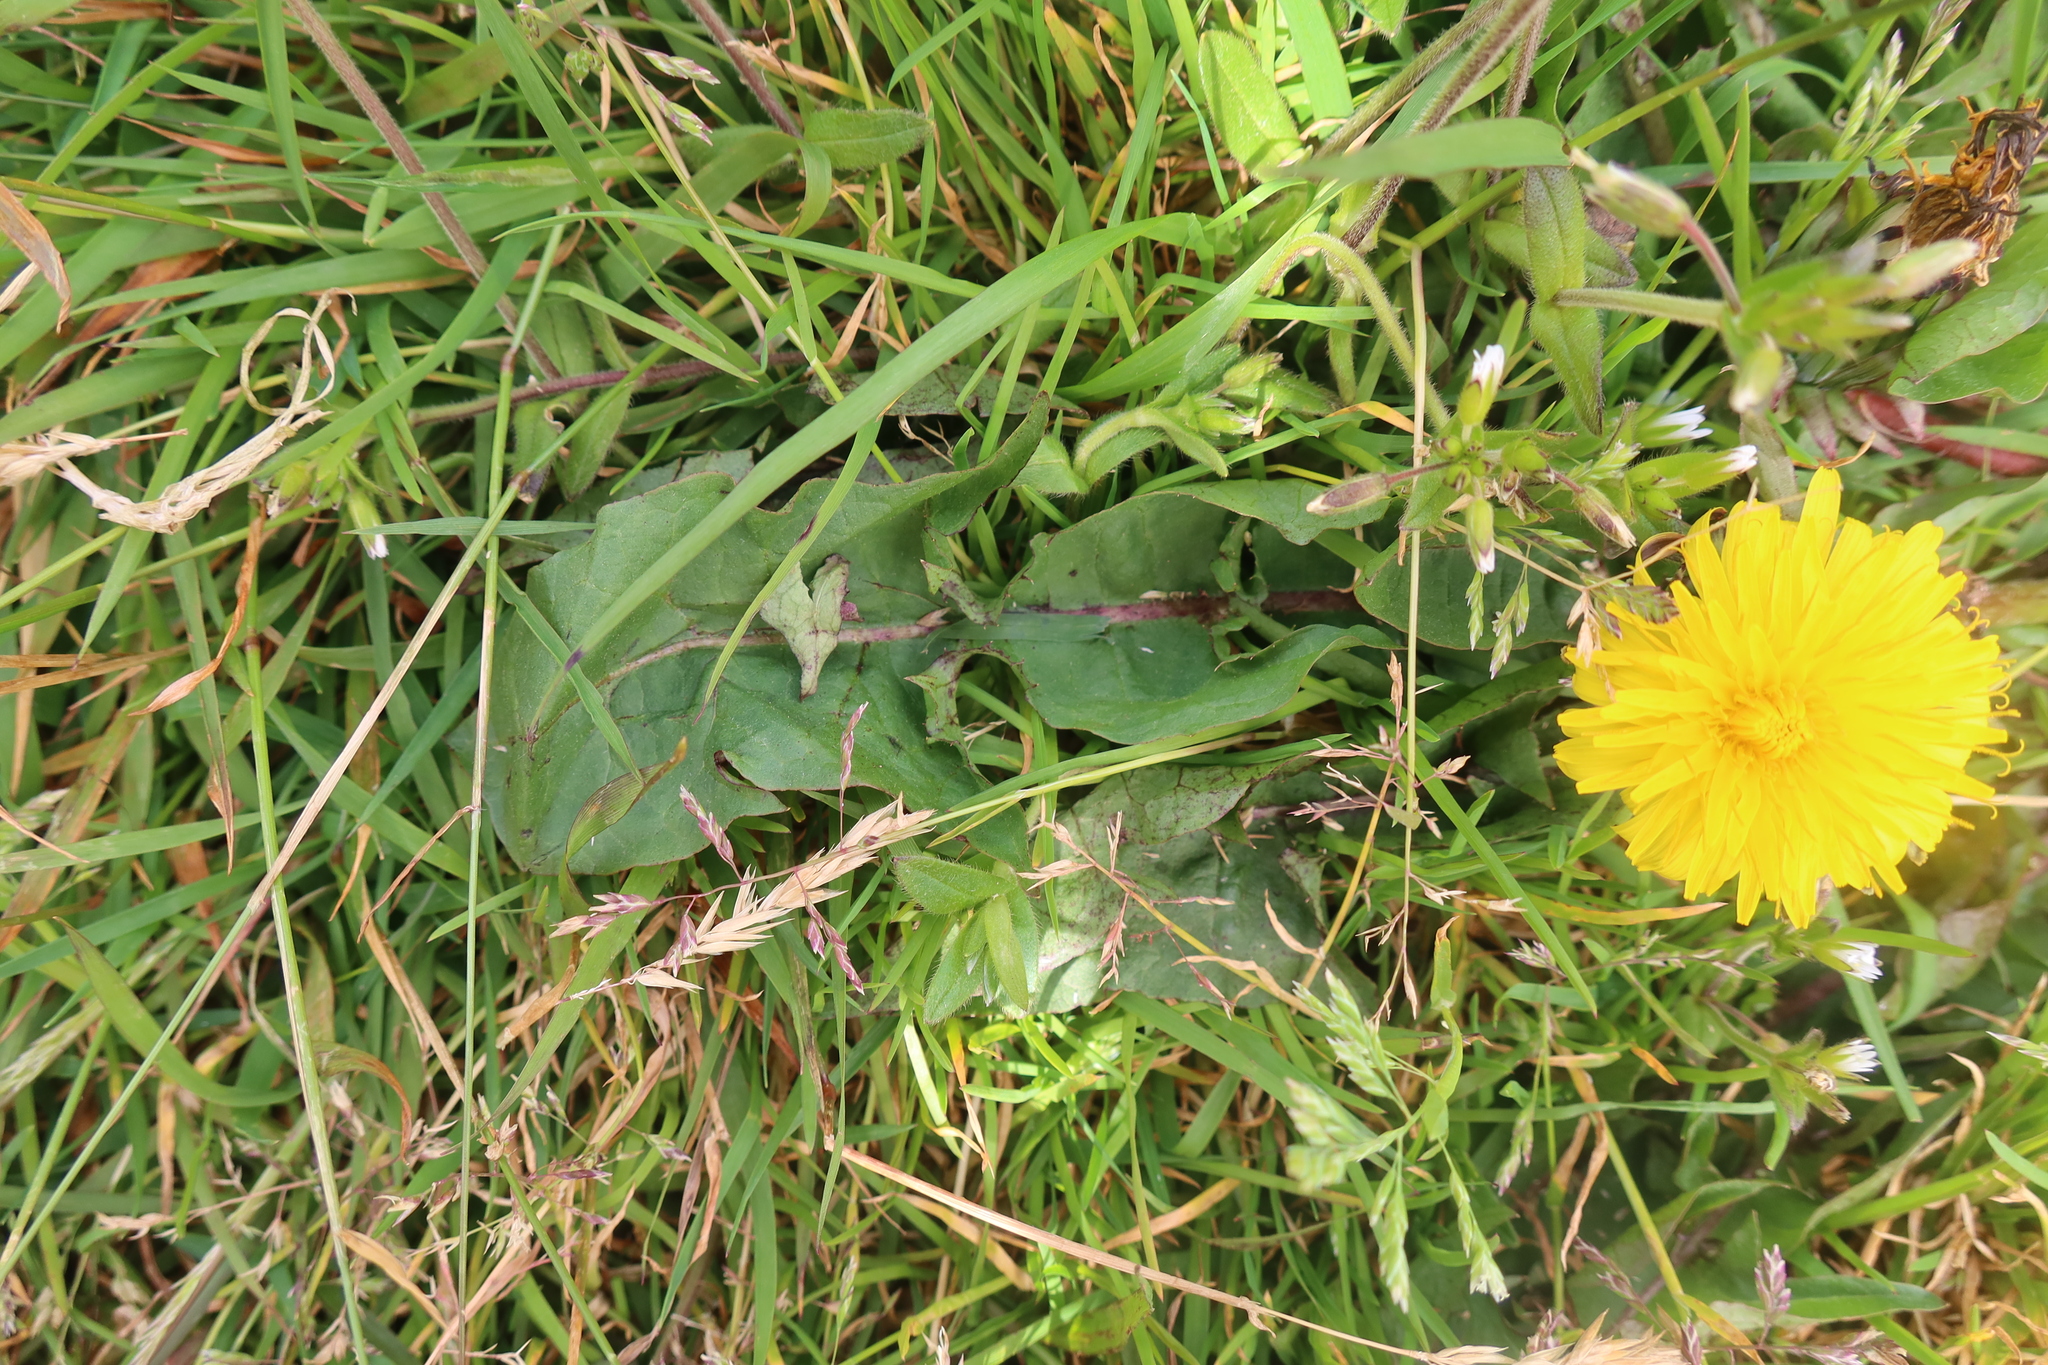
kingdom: Plantae
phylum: Tracheophyta
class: Magnoliopsida
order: Asterales
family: Asteraceae
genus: Taraxacum
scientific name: Taraxacum officinale
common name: Common dandelion
